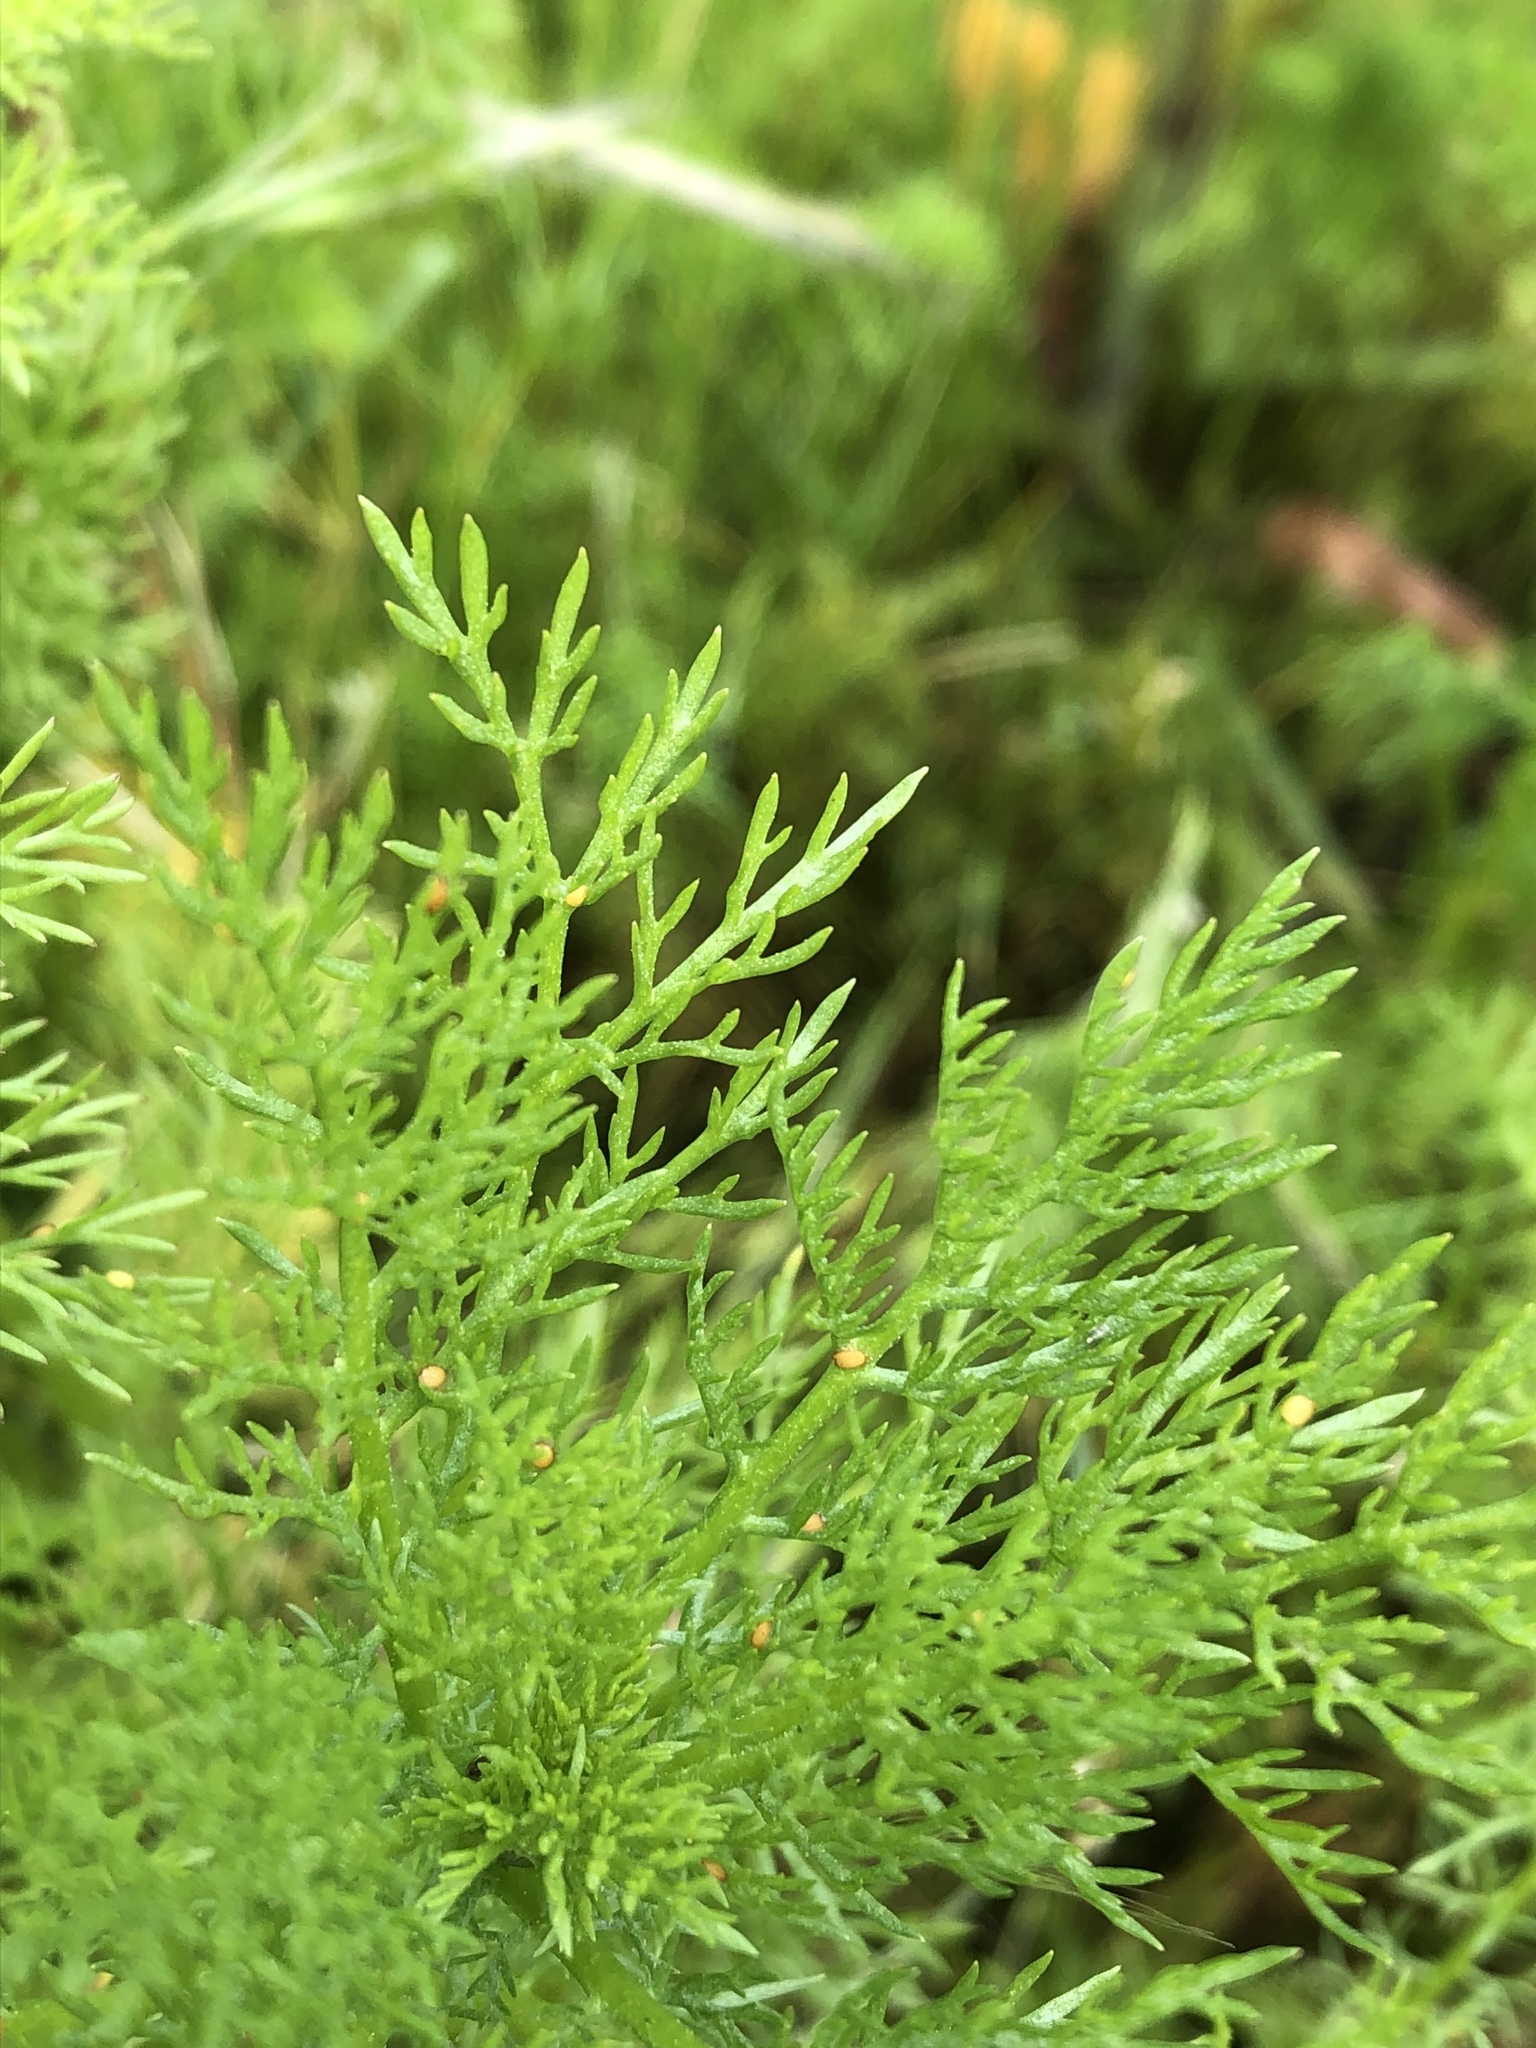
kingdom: Plantae
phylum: Tracheophyta
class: Magnoliopsida
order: Asterales
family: Asteraceae
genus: Matricaria
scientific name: Matricaria discoidea
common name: Disc mayweed
